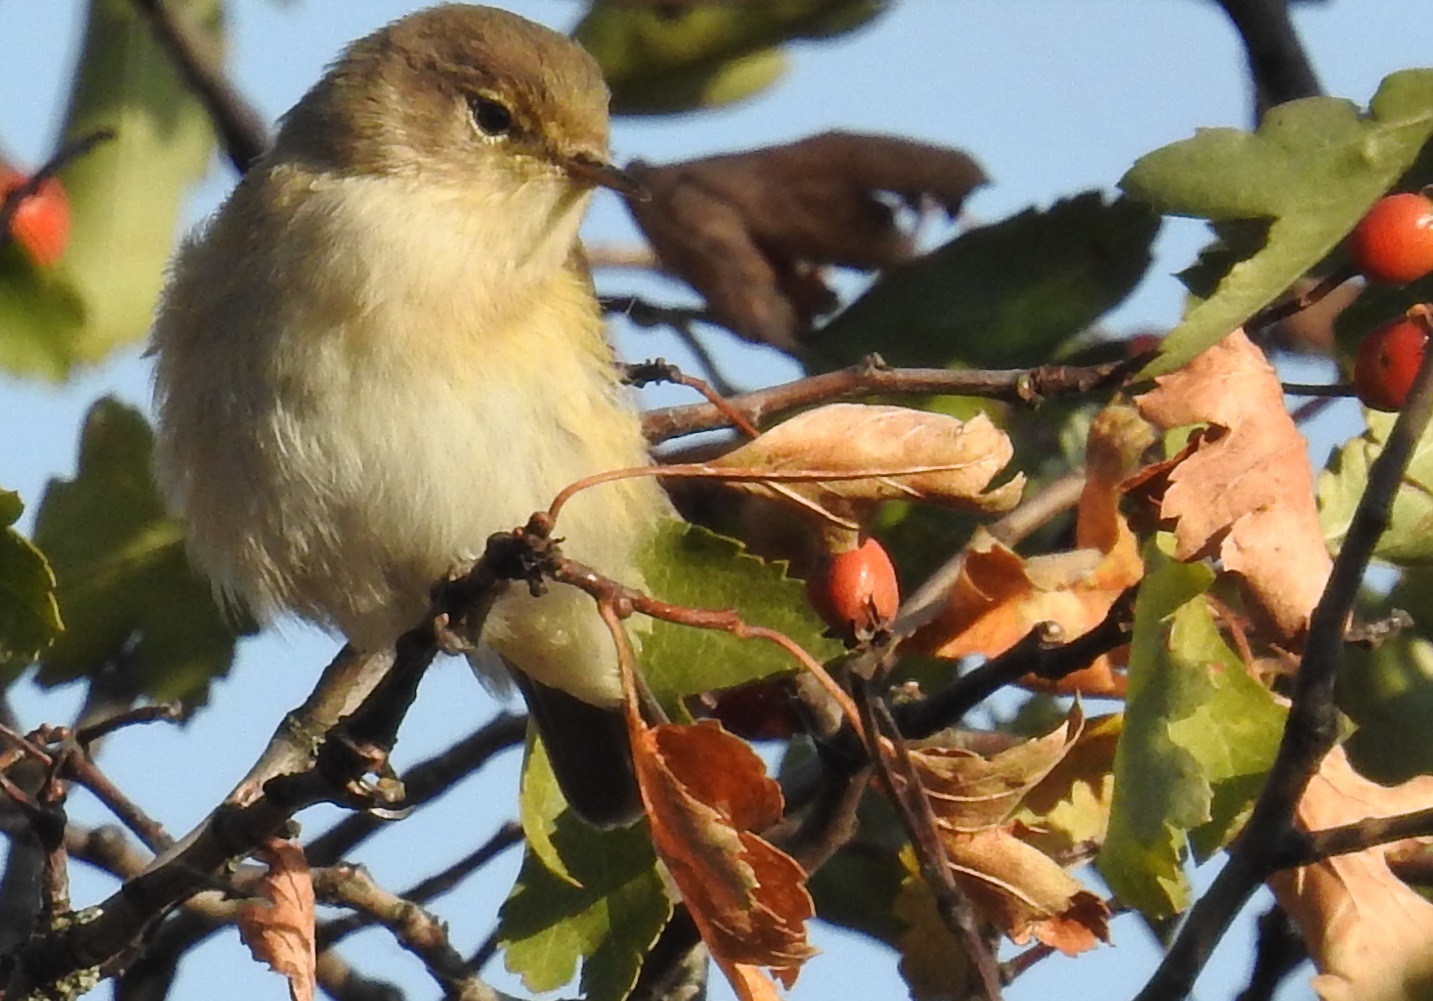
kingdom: Animalia
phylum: Chordata
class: Aves
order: Passeriformes
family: Phylloscopidae
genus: Phylloscopus
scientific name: Phylloscopus collybita
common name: Common chiffchaff
